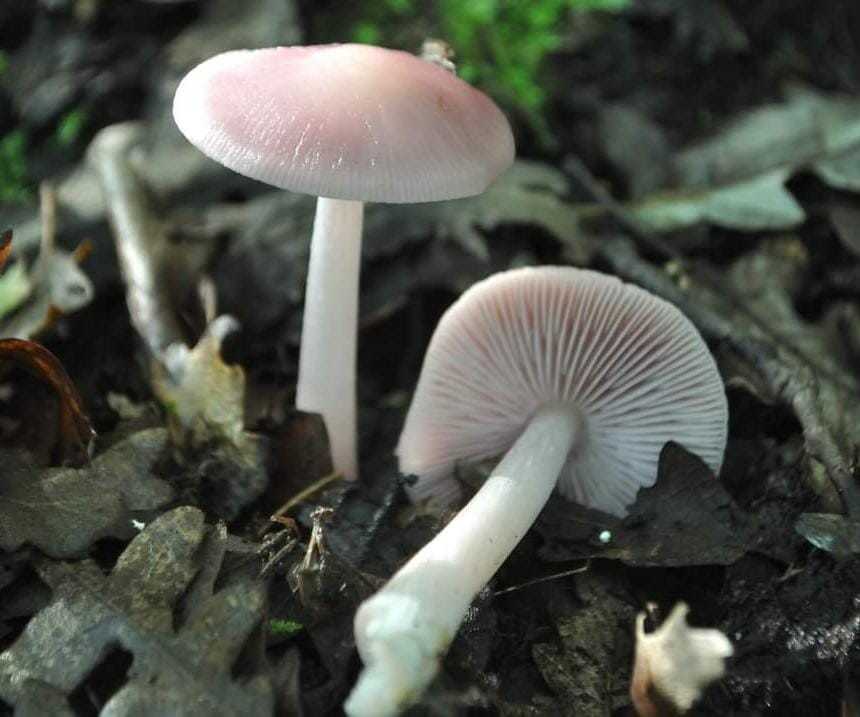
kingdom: Fungi
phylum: Basidiomycota
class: Agaricomycetes
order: Agaricales
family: Mycenaceae
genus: Mycena
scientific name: Mycena rosea
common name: Rosy bonnet
